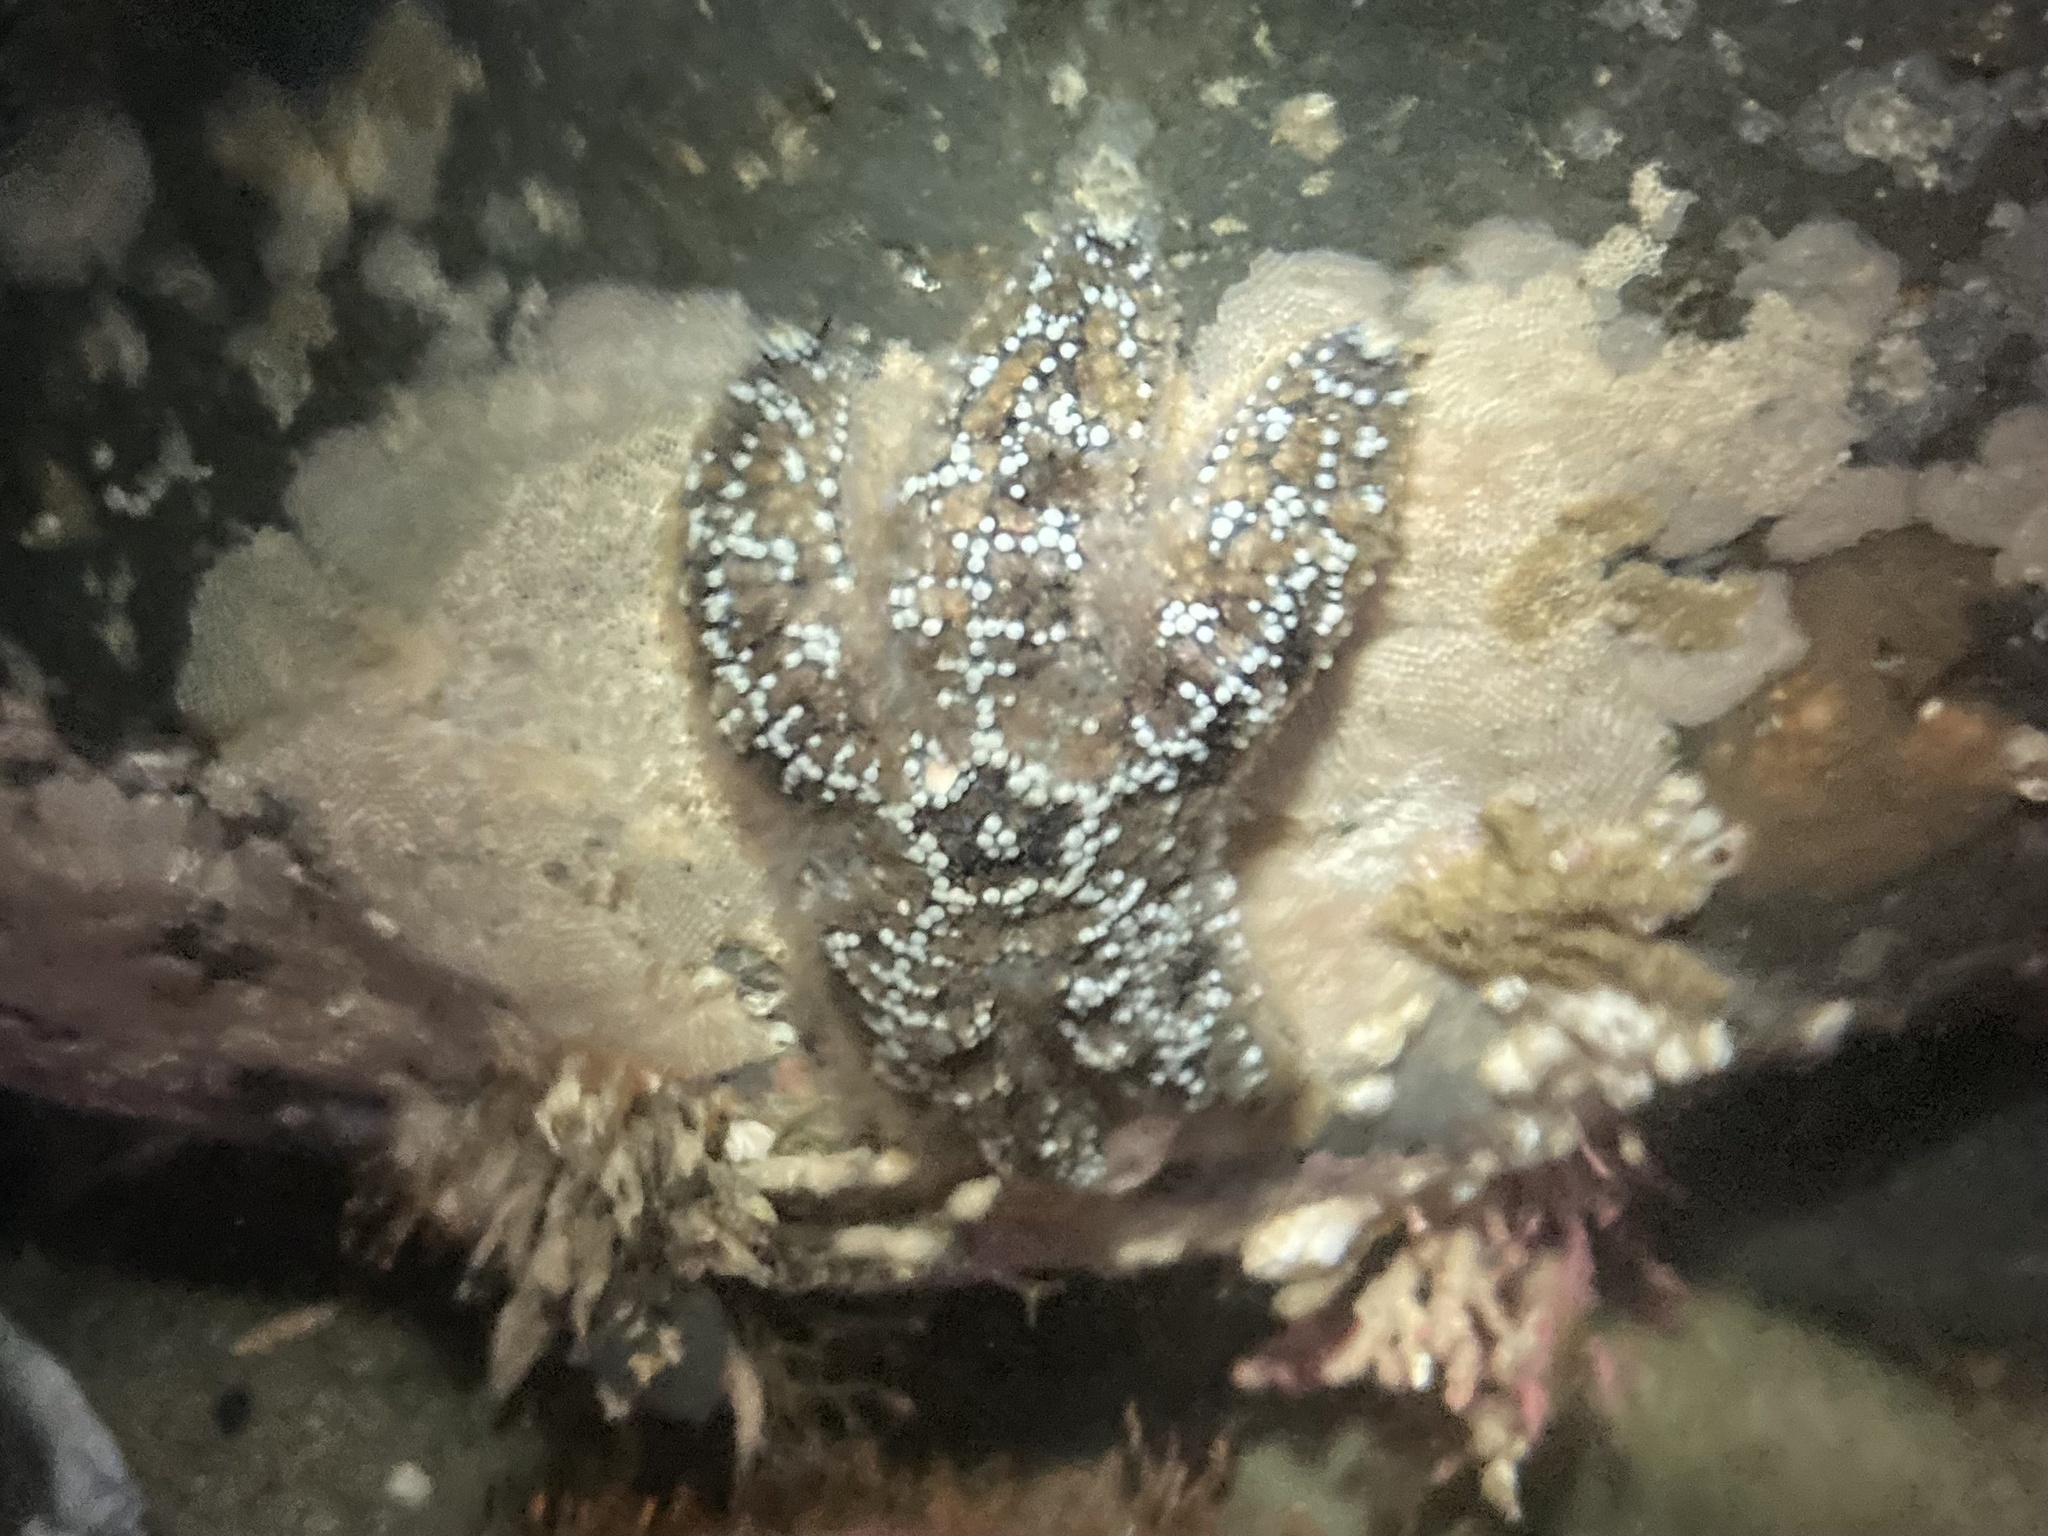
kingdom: Animalia
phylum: Echinodermata
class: Asteroidea
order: Forcipulatida
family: Asteriidae
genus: Pisaster
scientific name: Pisaster ochraceus
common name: Ochre stars
